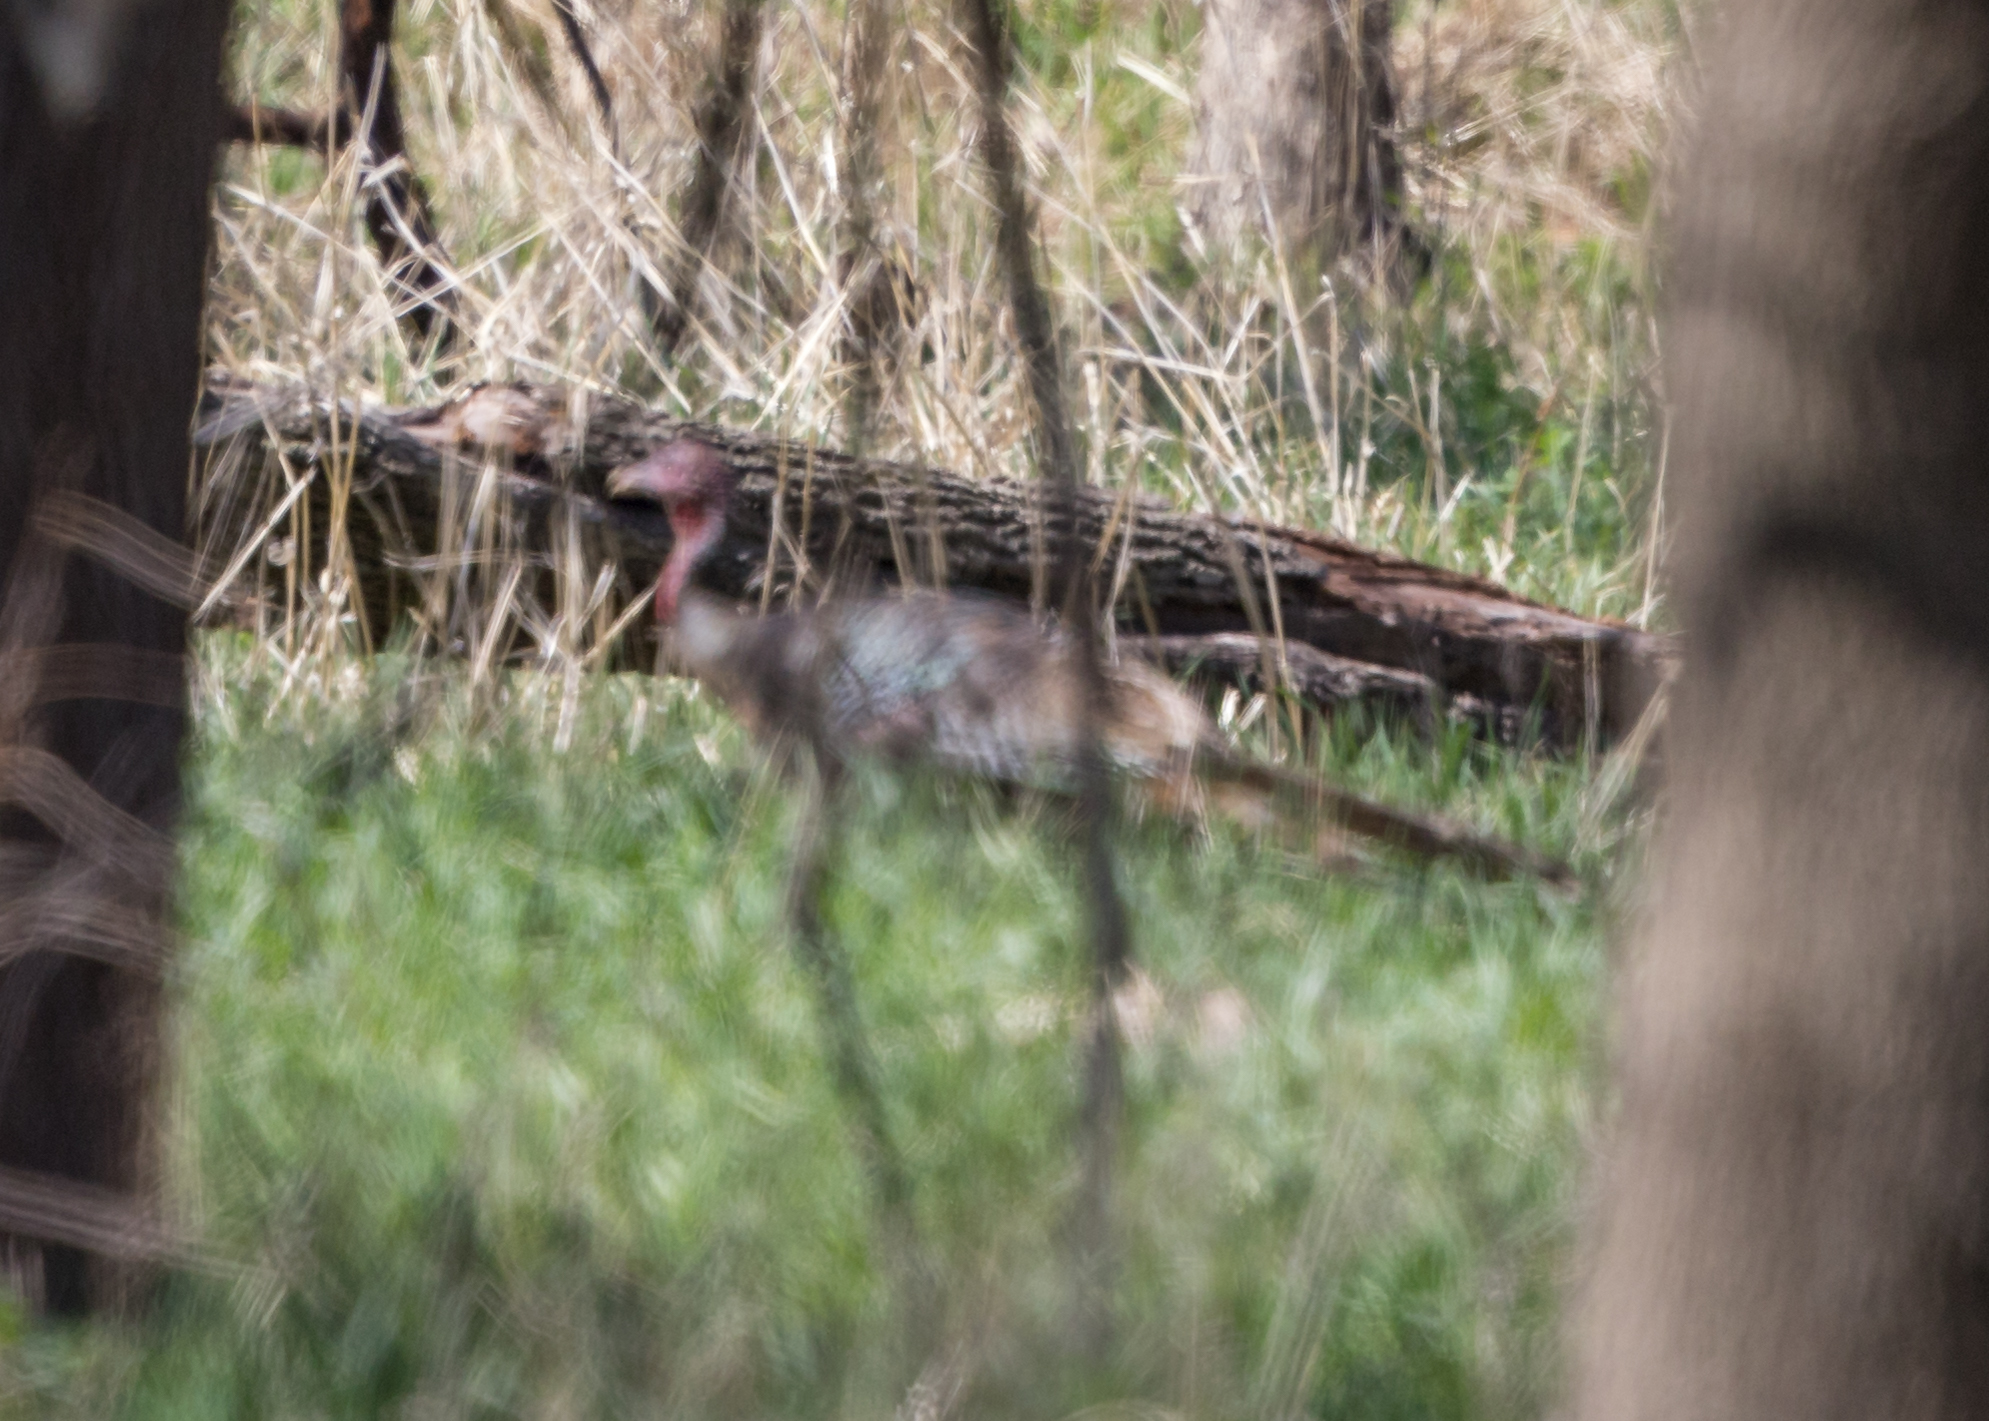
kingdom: Animalia
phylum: Chordata
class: Aves
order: Galliformes
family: Phasianidae
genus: Meleagris
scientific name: Meleagris gallopavo
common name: Wild turkey
